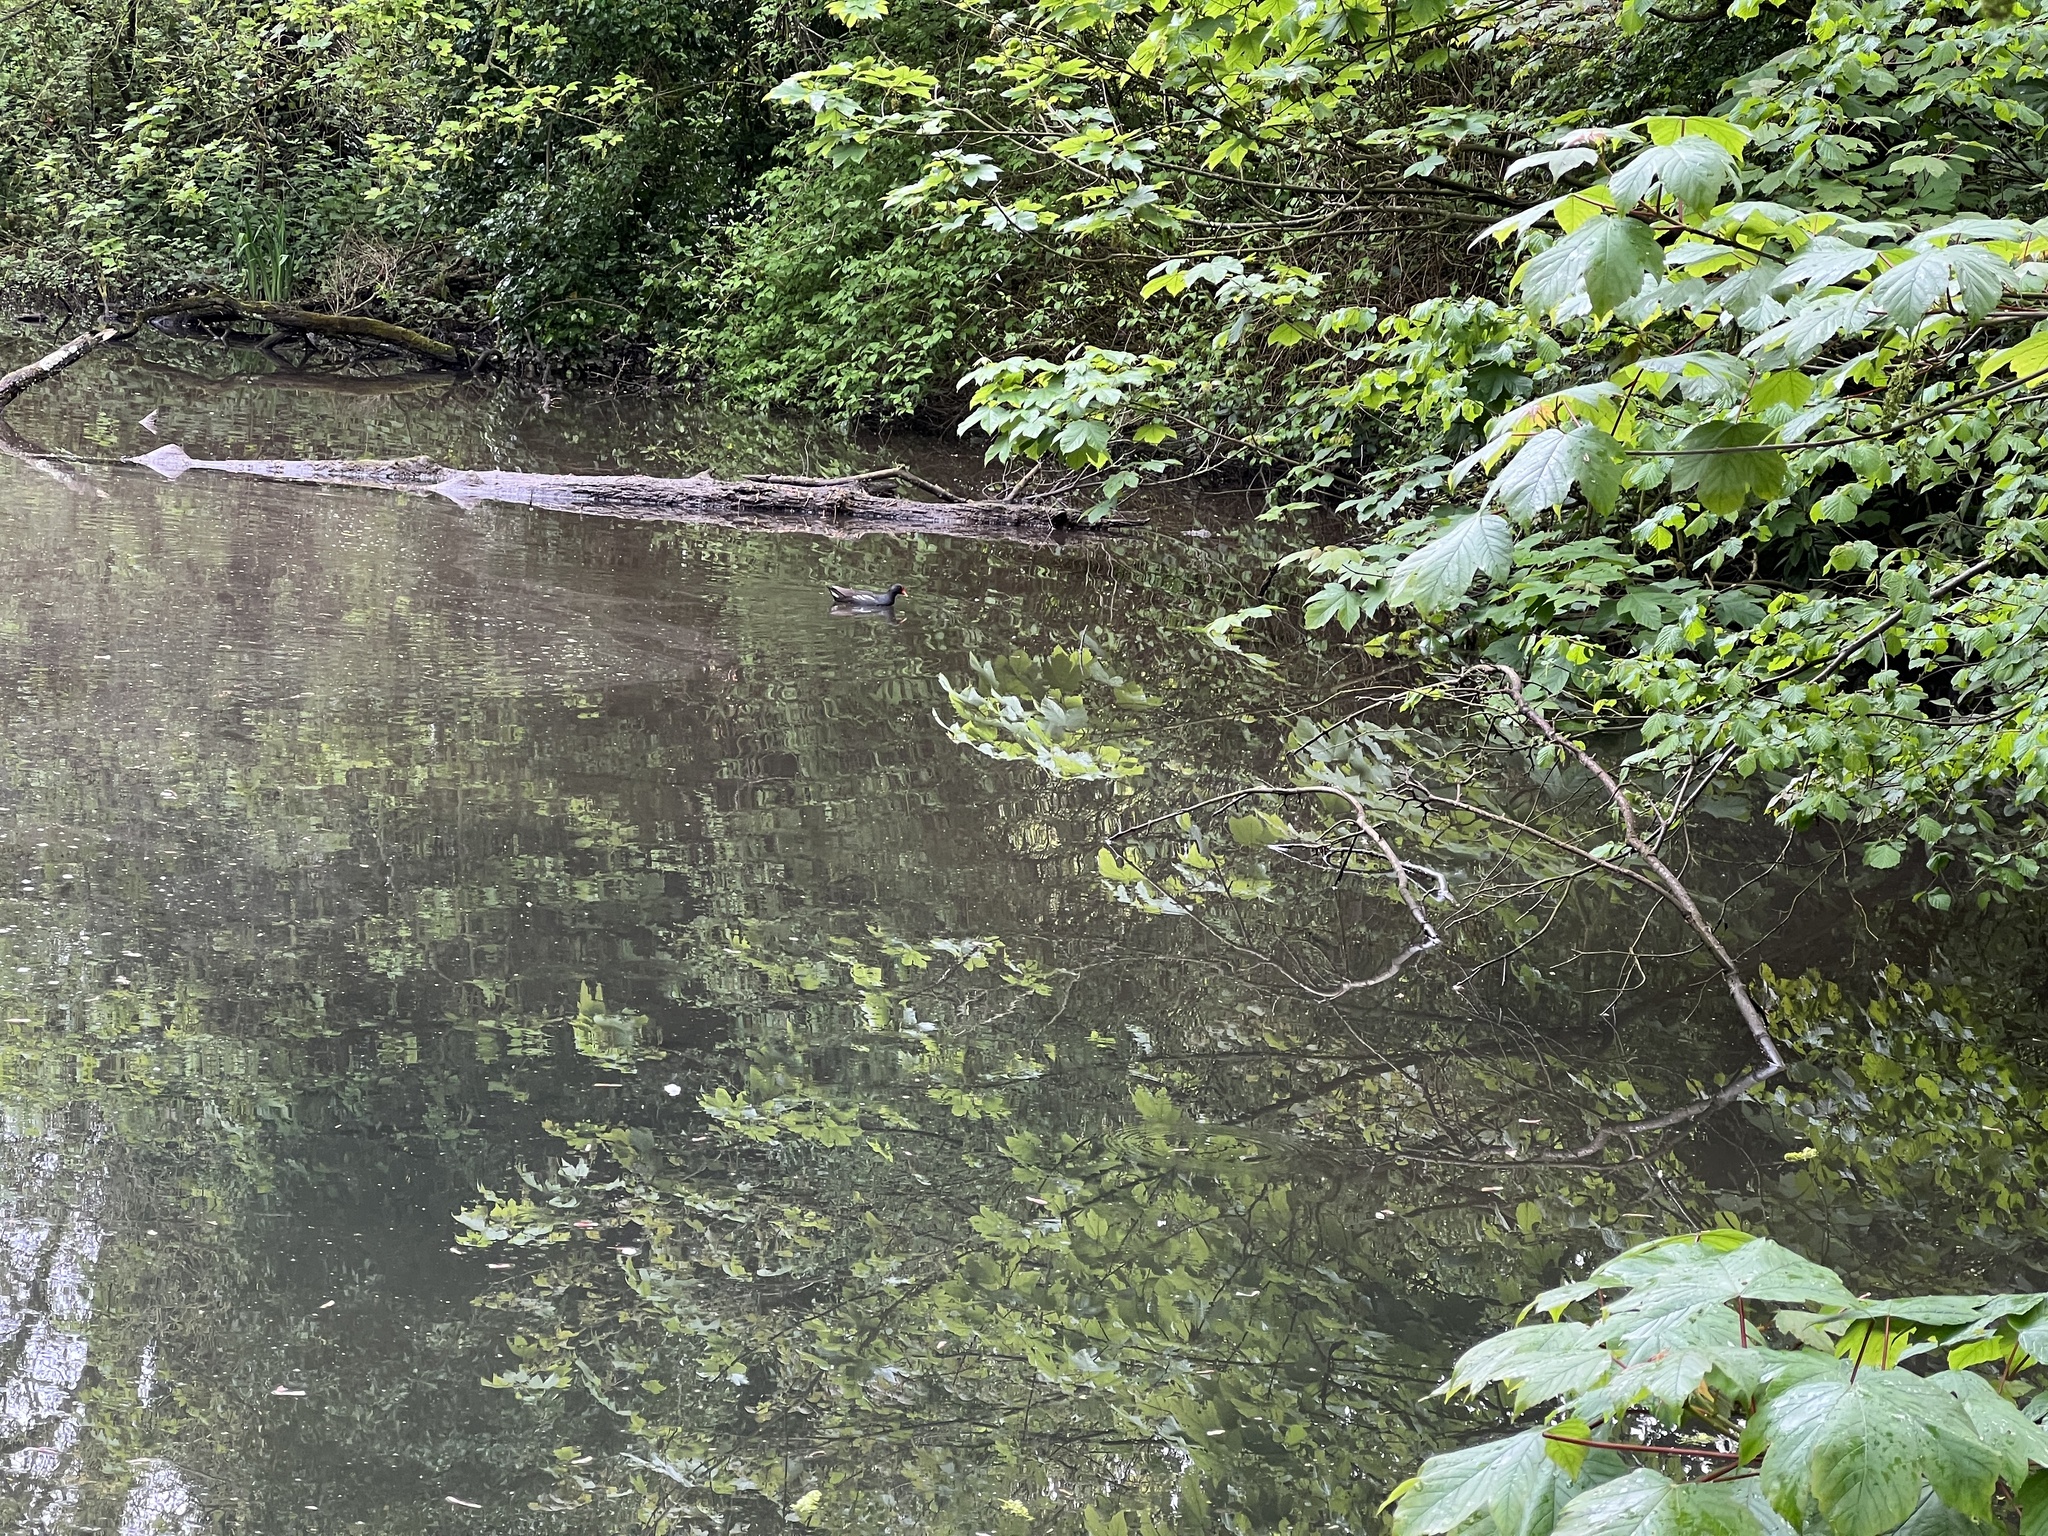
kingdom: Animalia
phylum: Chordata
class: Aves
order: Gruiformes
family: Rallidae
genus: Gallinula
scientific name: Gallinula chloropus
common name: Common moorhen
